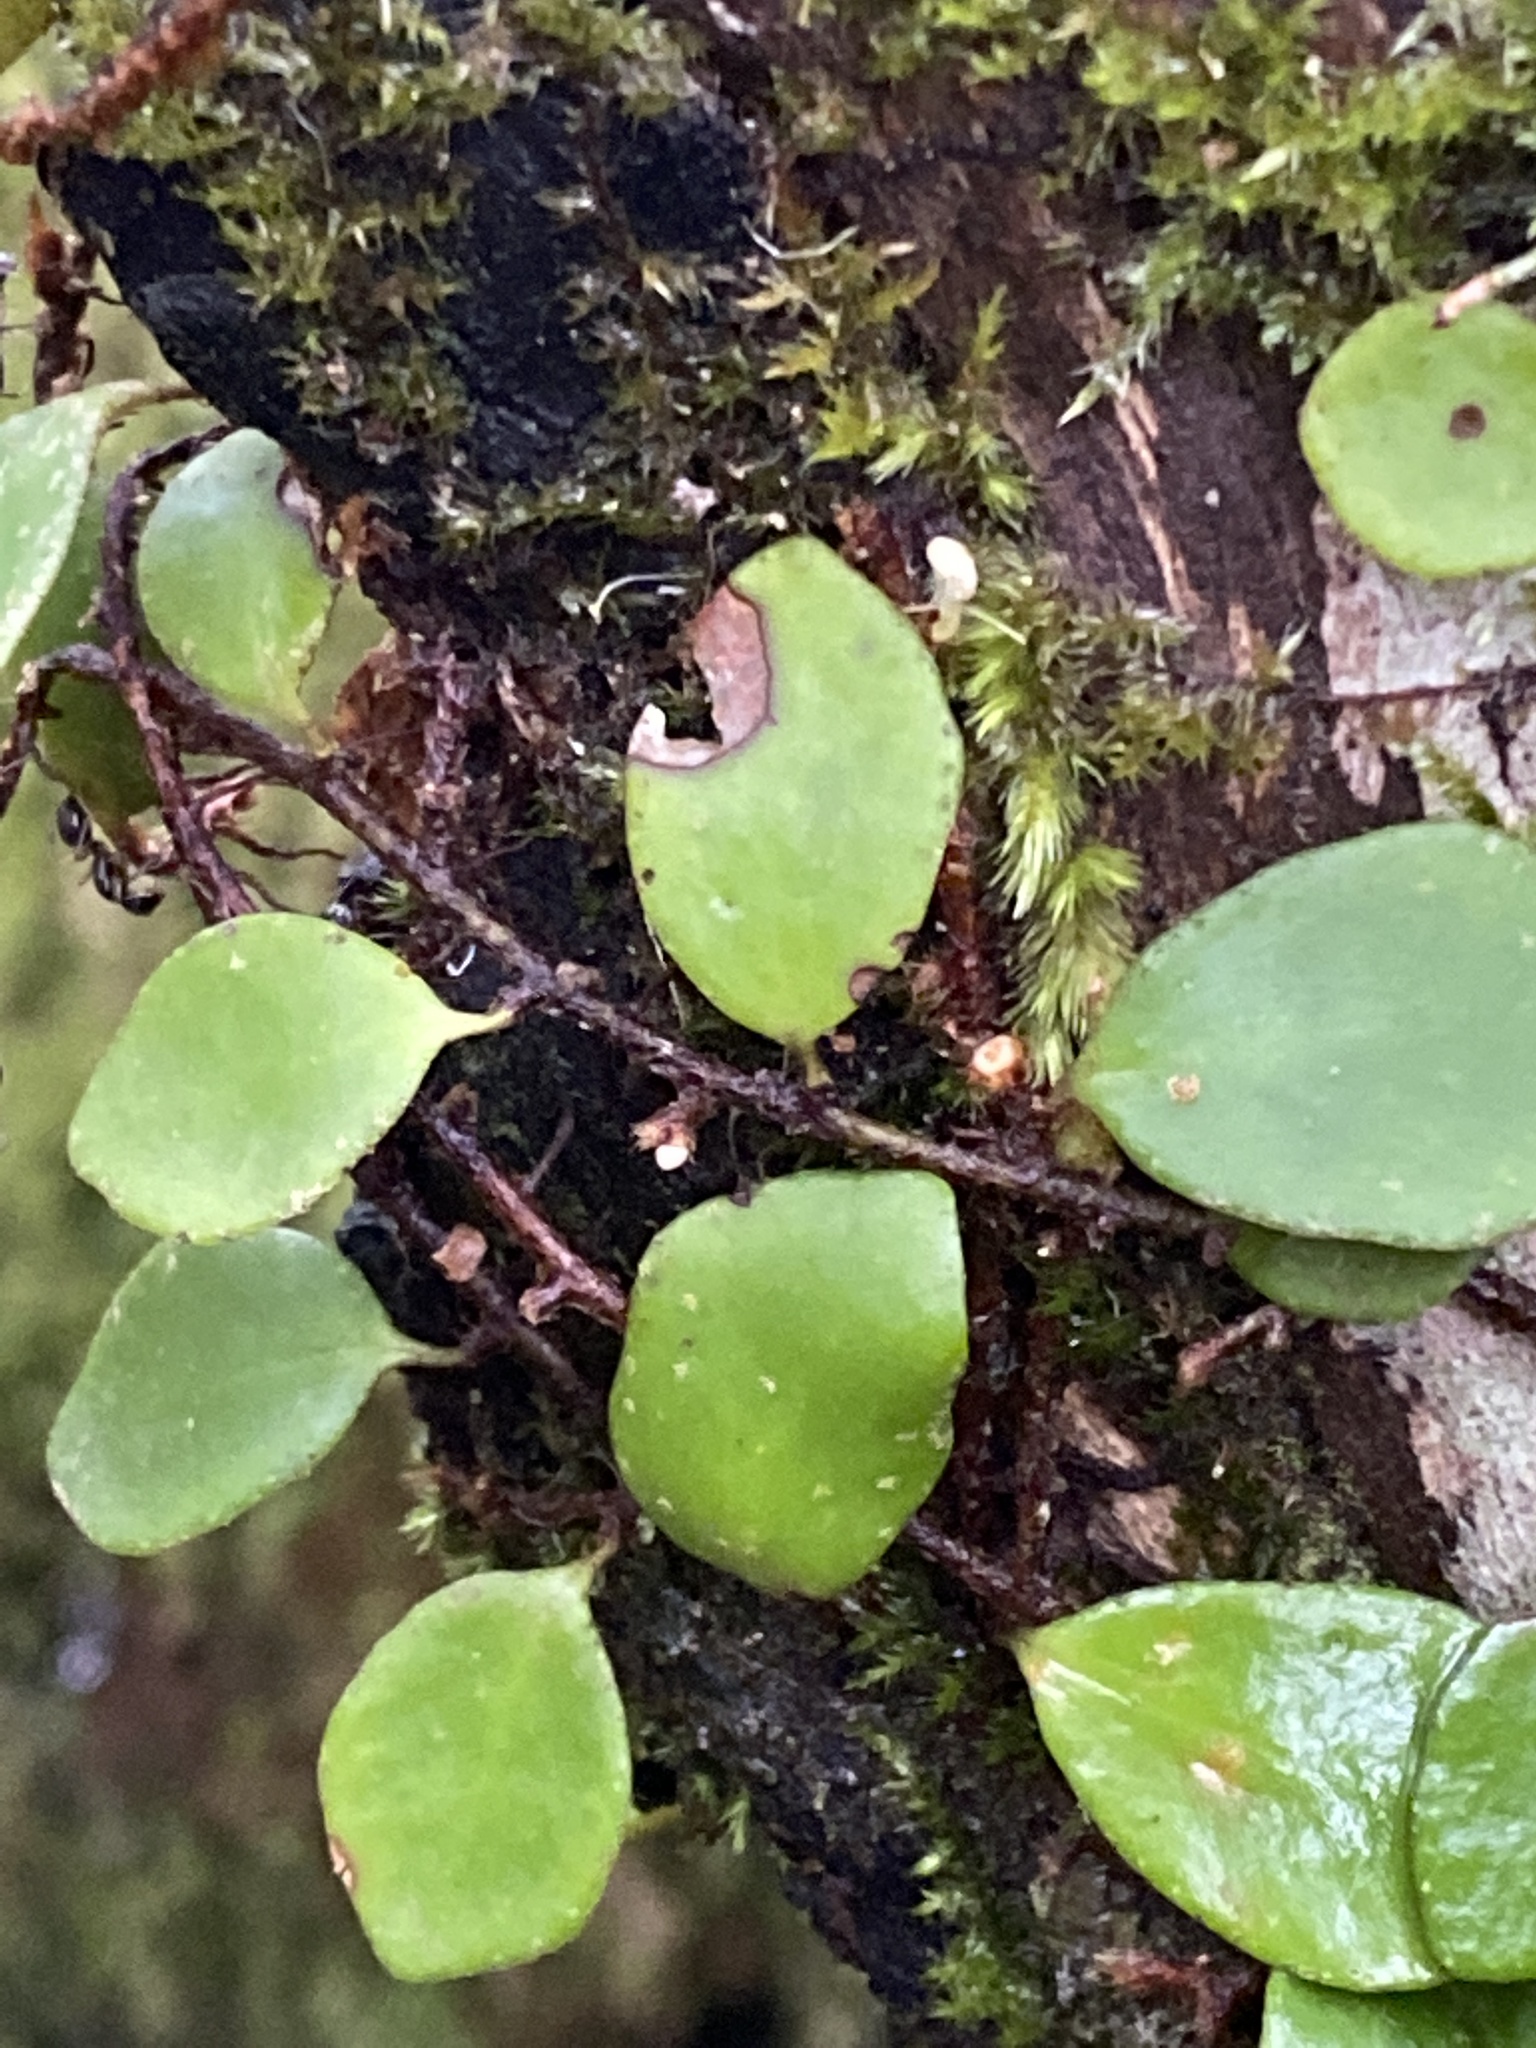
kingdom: Plantae
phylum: Tracheophyta
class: Polypodiopsida
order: Polypodiales
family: Polypodiaceae
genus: Pyrrosia
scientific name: Pyrrosia rupestris
